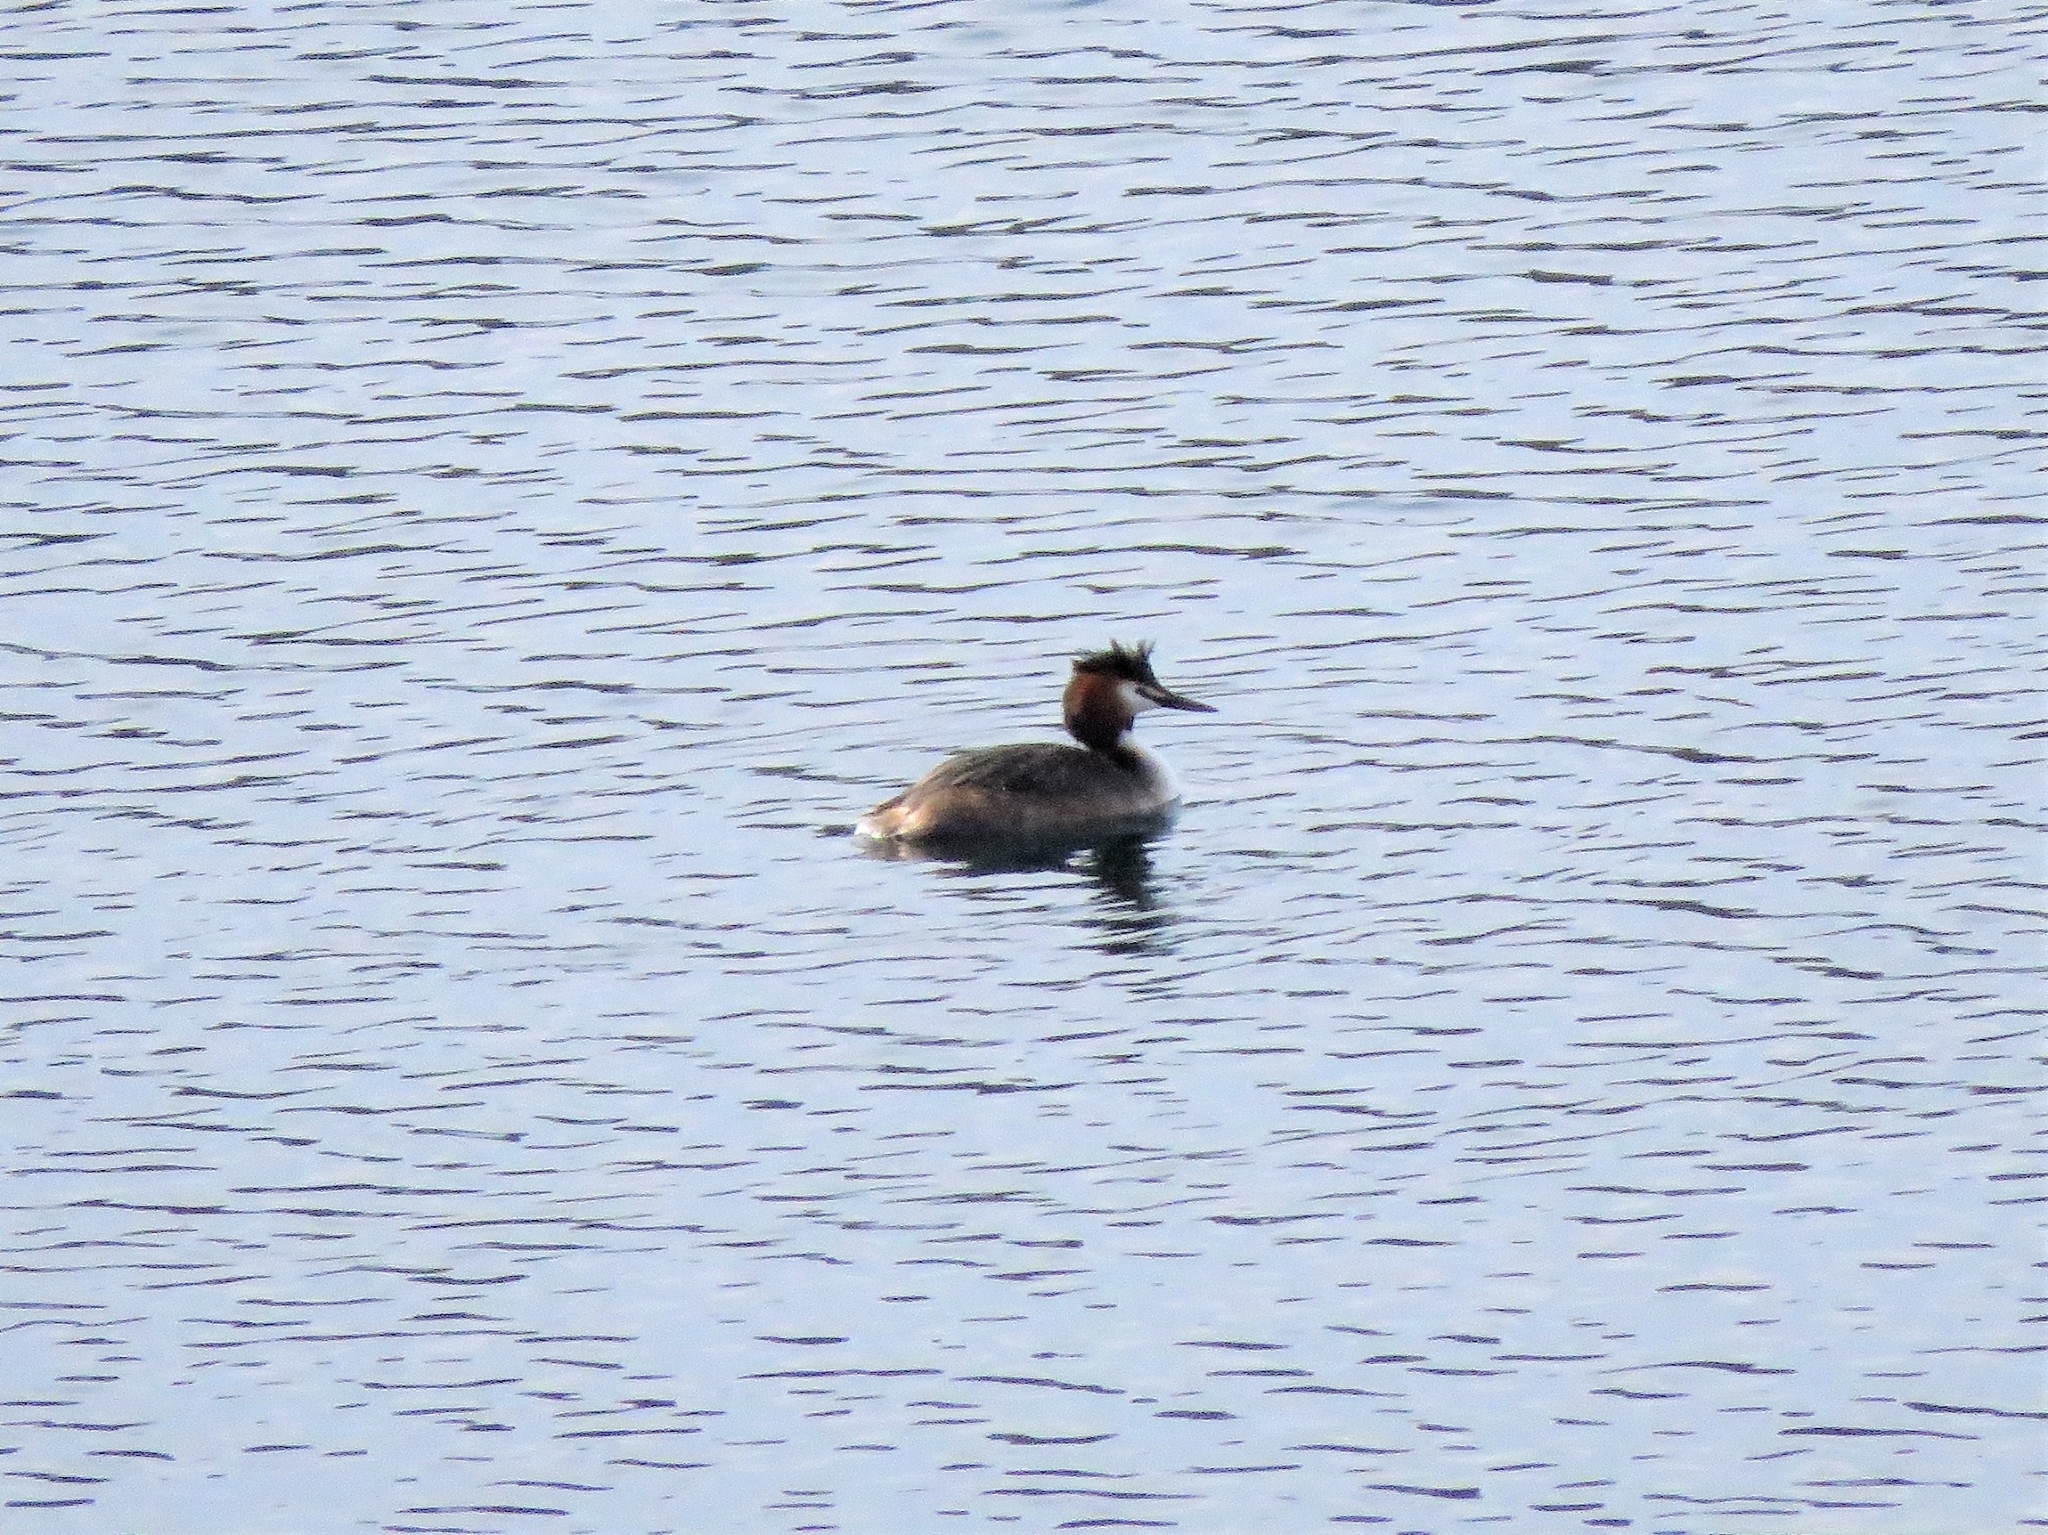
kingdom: Animalia
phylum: Chordata
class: Aves
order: Podicipediformes
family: Podicipedidae
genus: Podiceps
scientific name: Podiceps cristatus
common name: Great crested grebe
